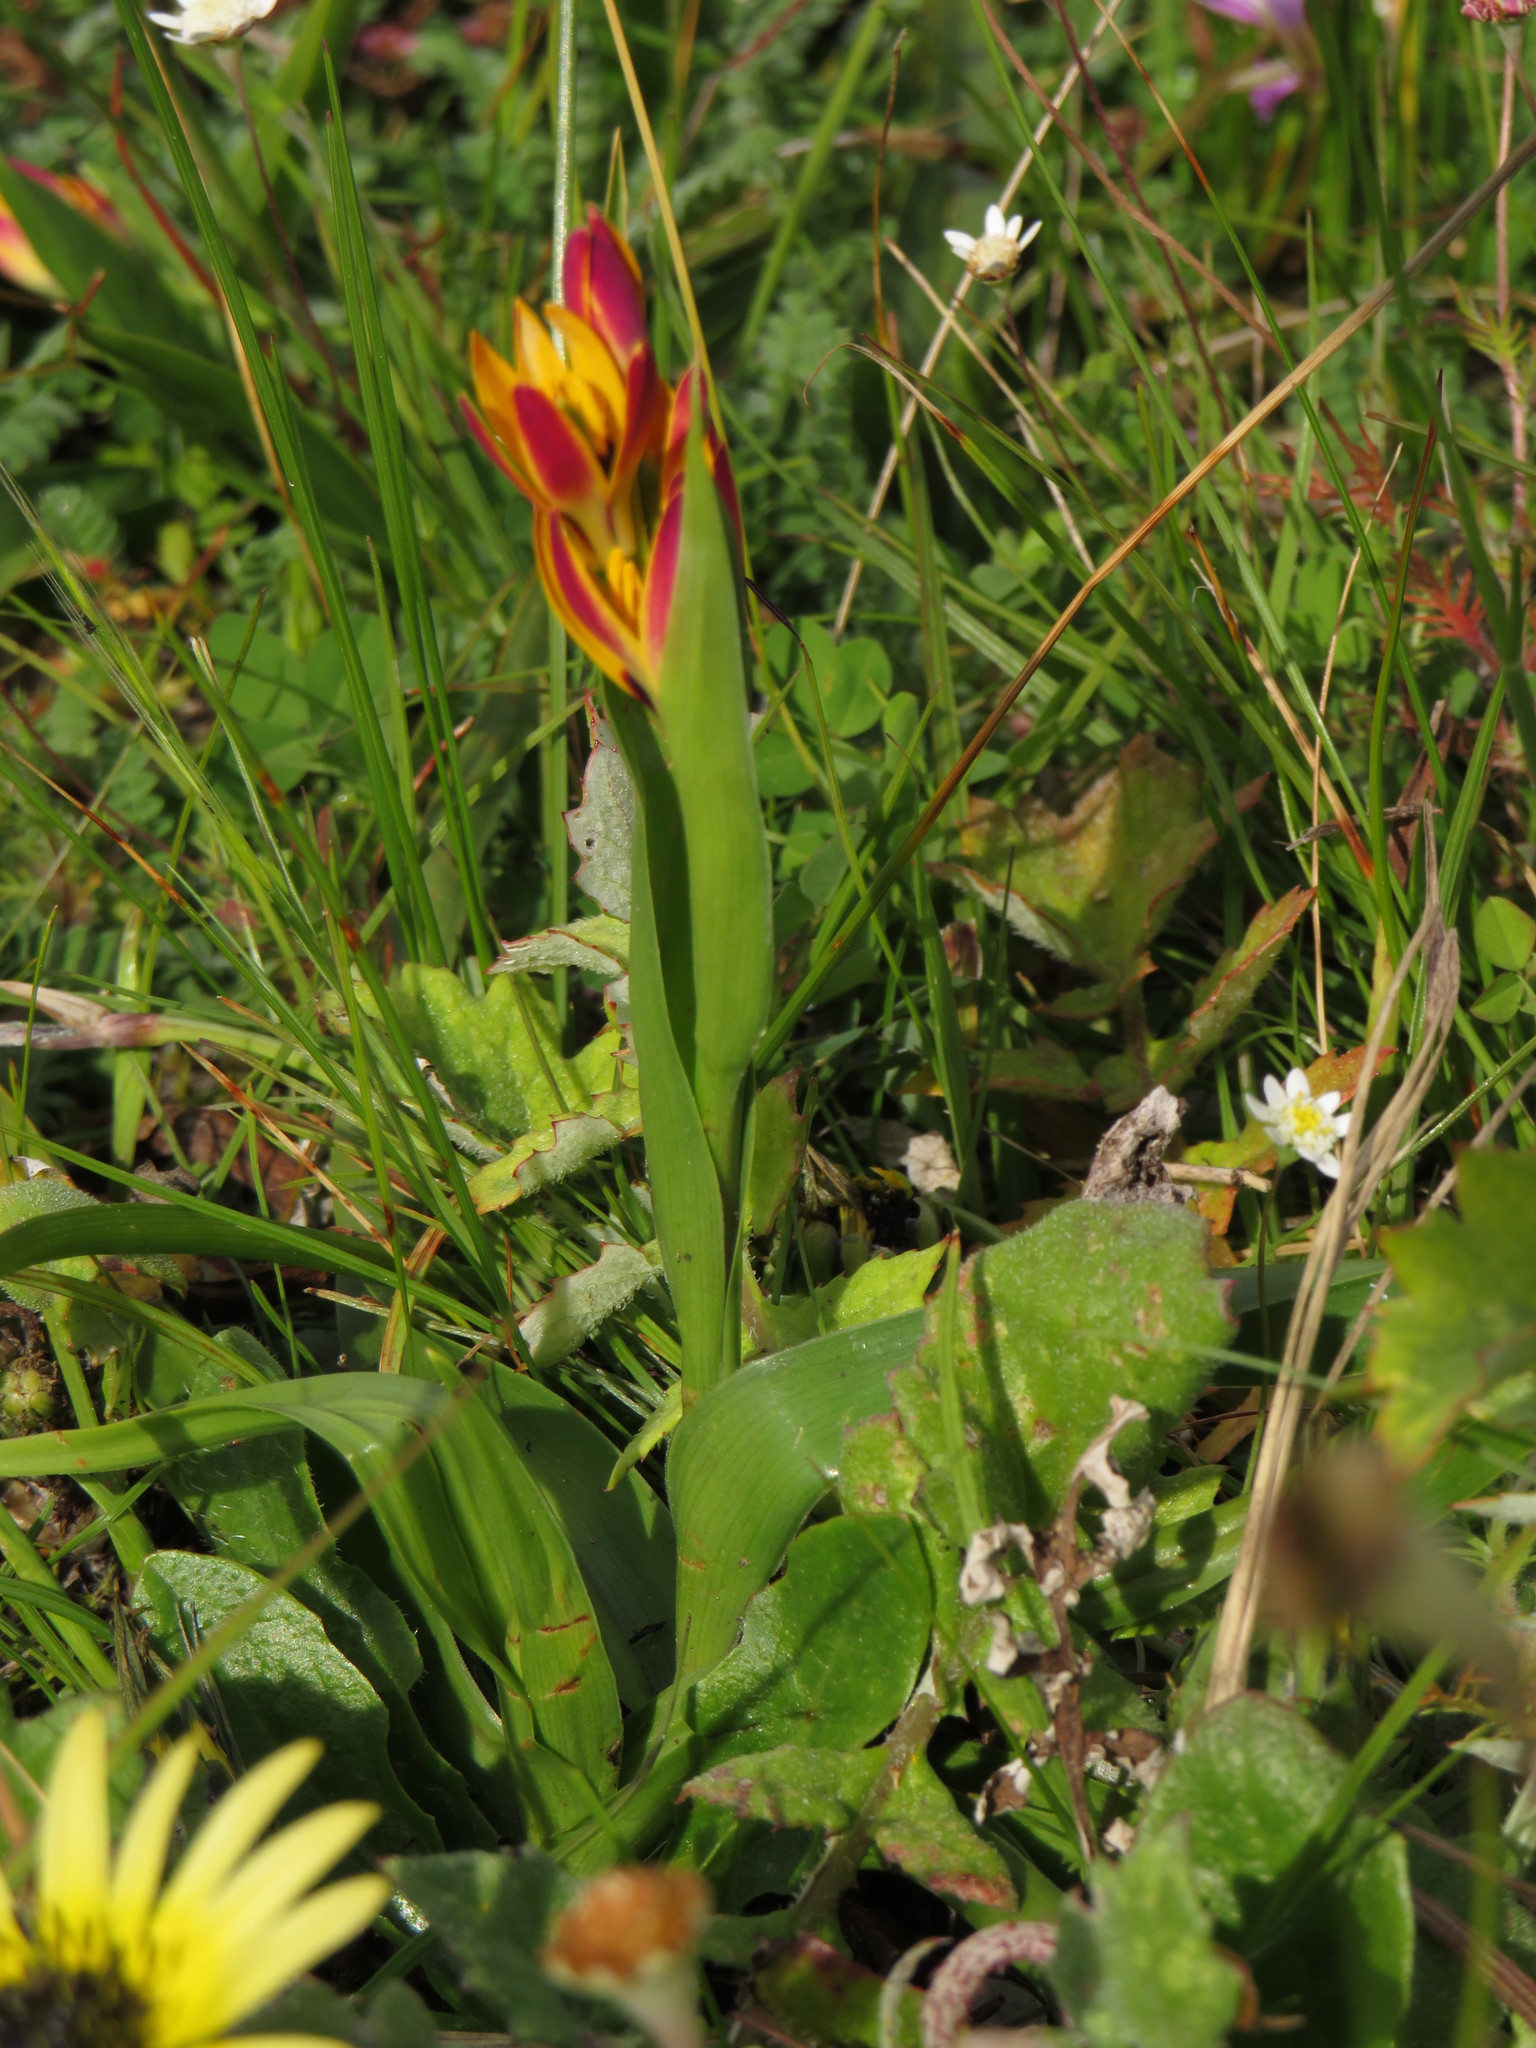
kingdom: Plantae
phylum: Tracheophyta
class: Liliopsida
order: Liliales
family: Colchicaceae
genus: Baeometra
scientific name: Baeometra uniflora
